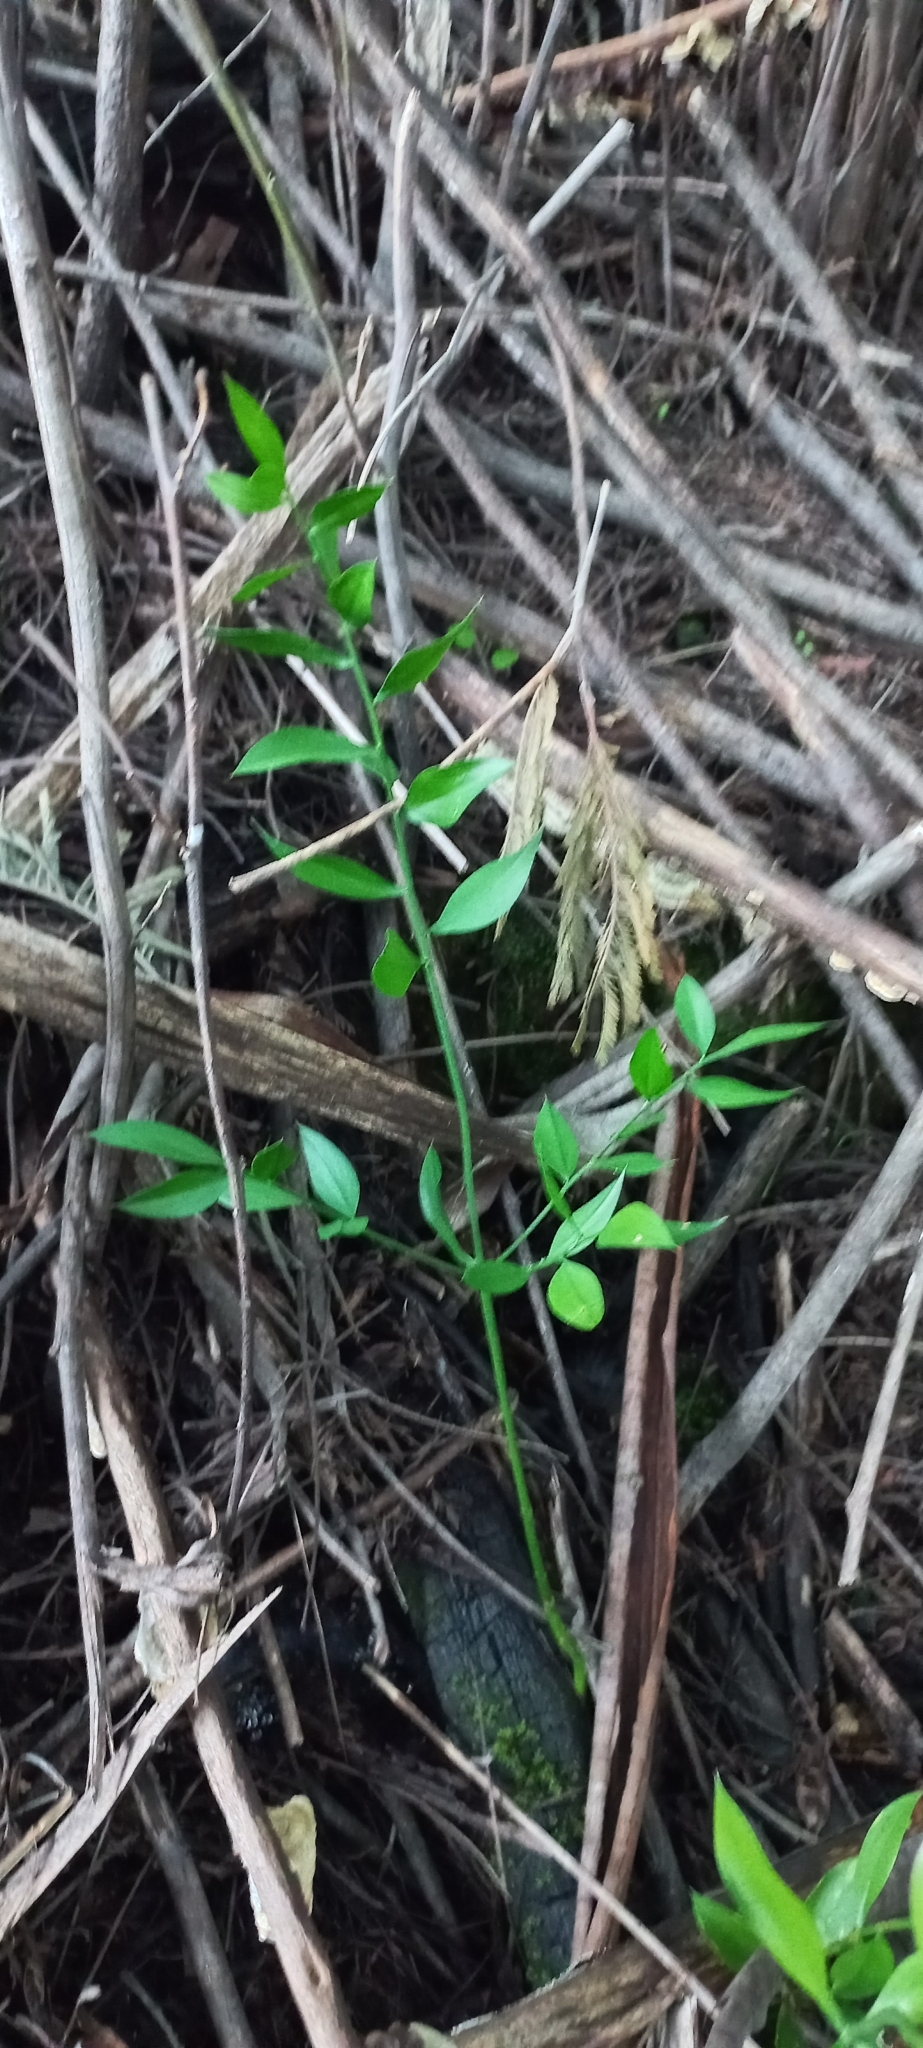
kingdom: Plantae
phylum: Tracheophyta
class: Liliopsida
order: Asparagales
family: Asparagaceae
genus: Ruscus
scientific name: Ruscus aculeatus
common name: Butcher's-broom
